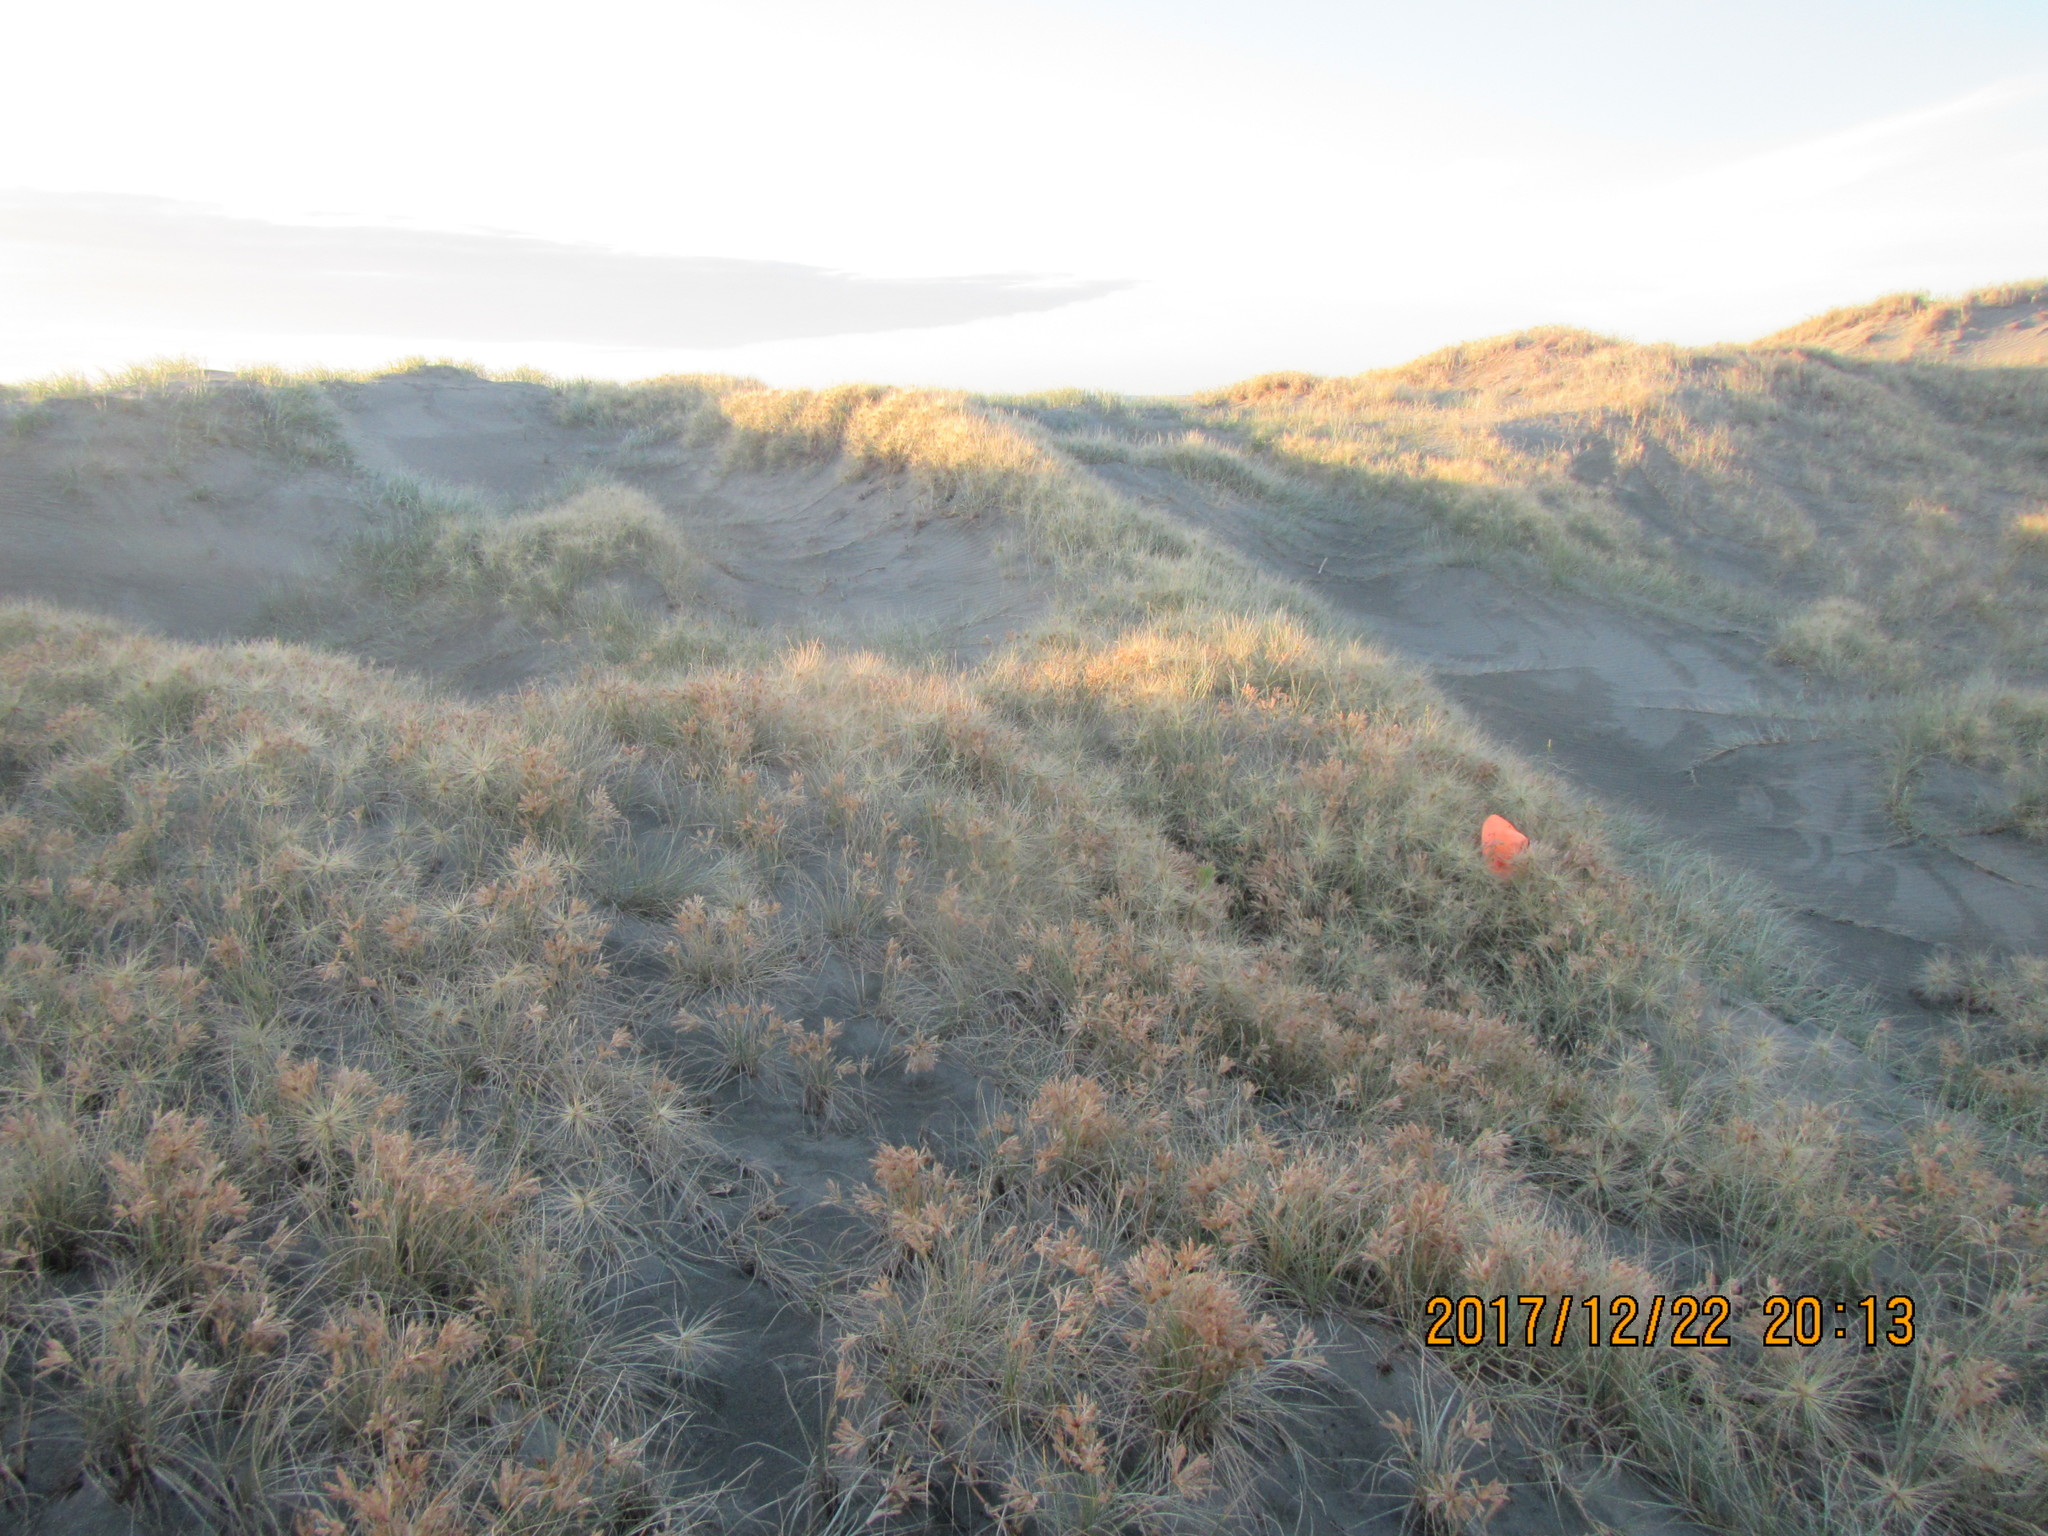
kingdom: Animalia
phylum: Arthropoda
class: Arachnida
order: Araneae
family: Theridiidae
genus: Latrodectus
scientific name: Latrodectus katipo
